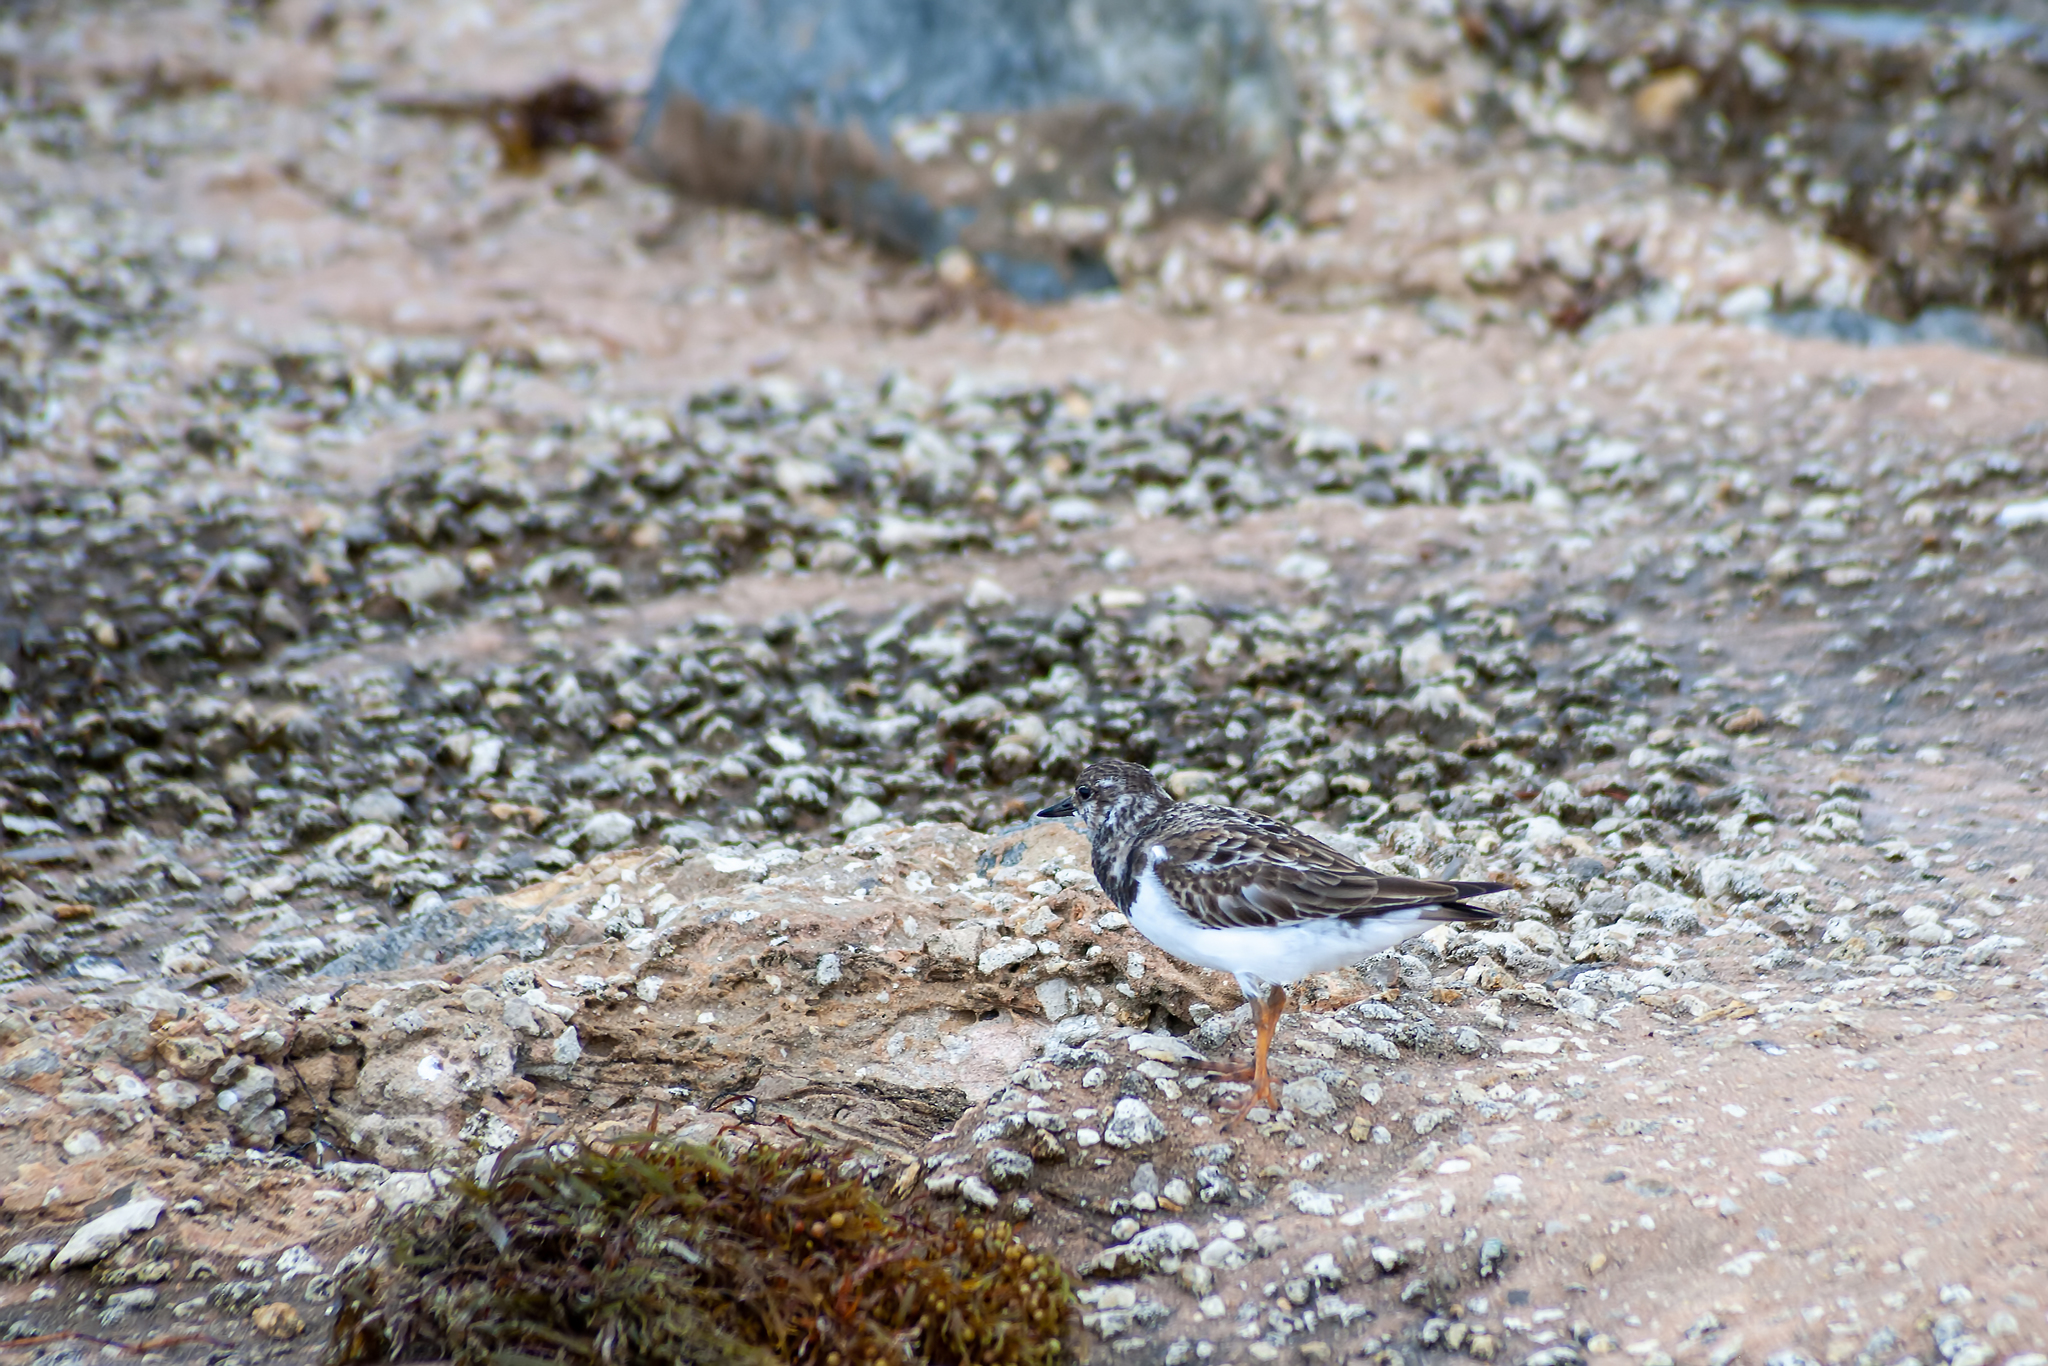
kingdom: Animalia
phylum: Chordata
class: Aves
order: Charadriiformes
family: Scolopacidae
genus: Arenaria
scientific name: Arenaria interpres
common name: Ruddy turnstone
